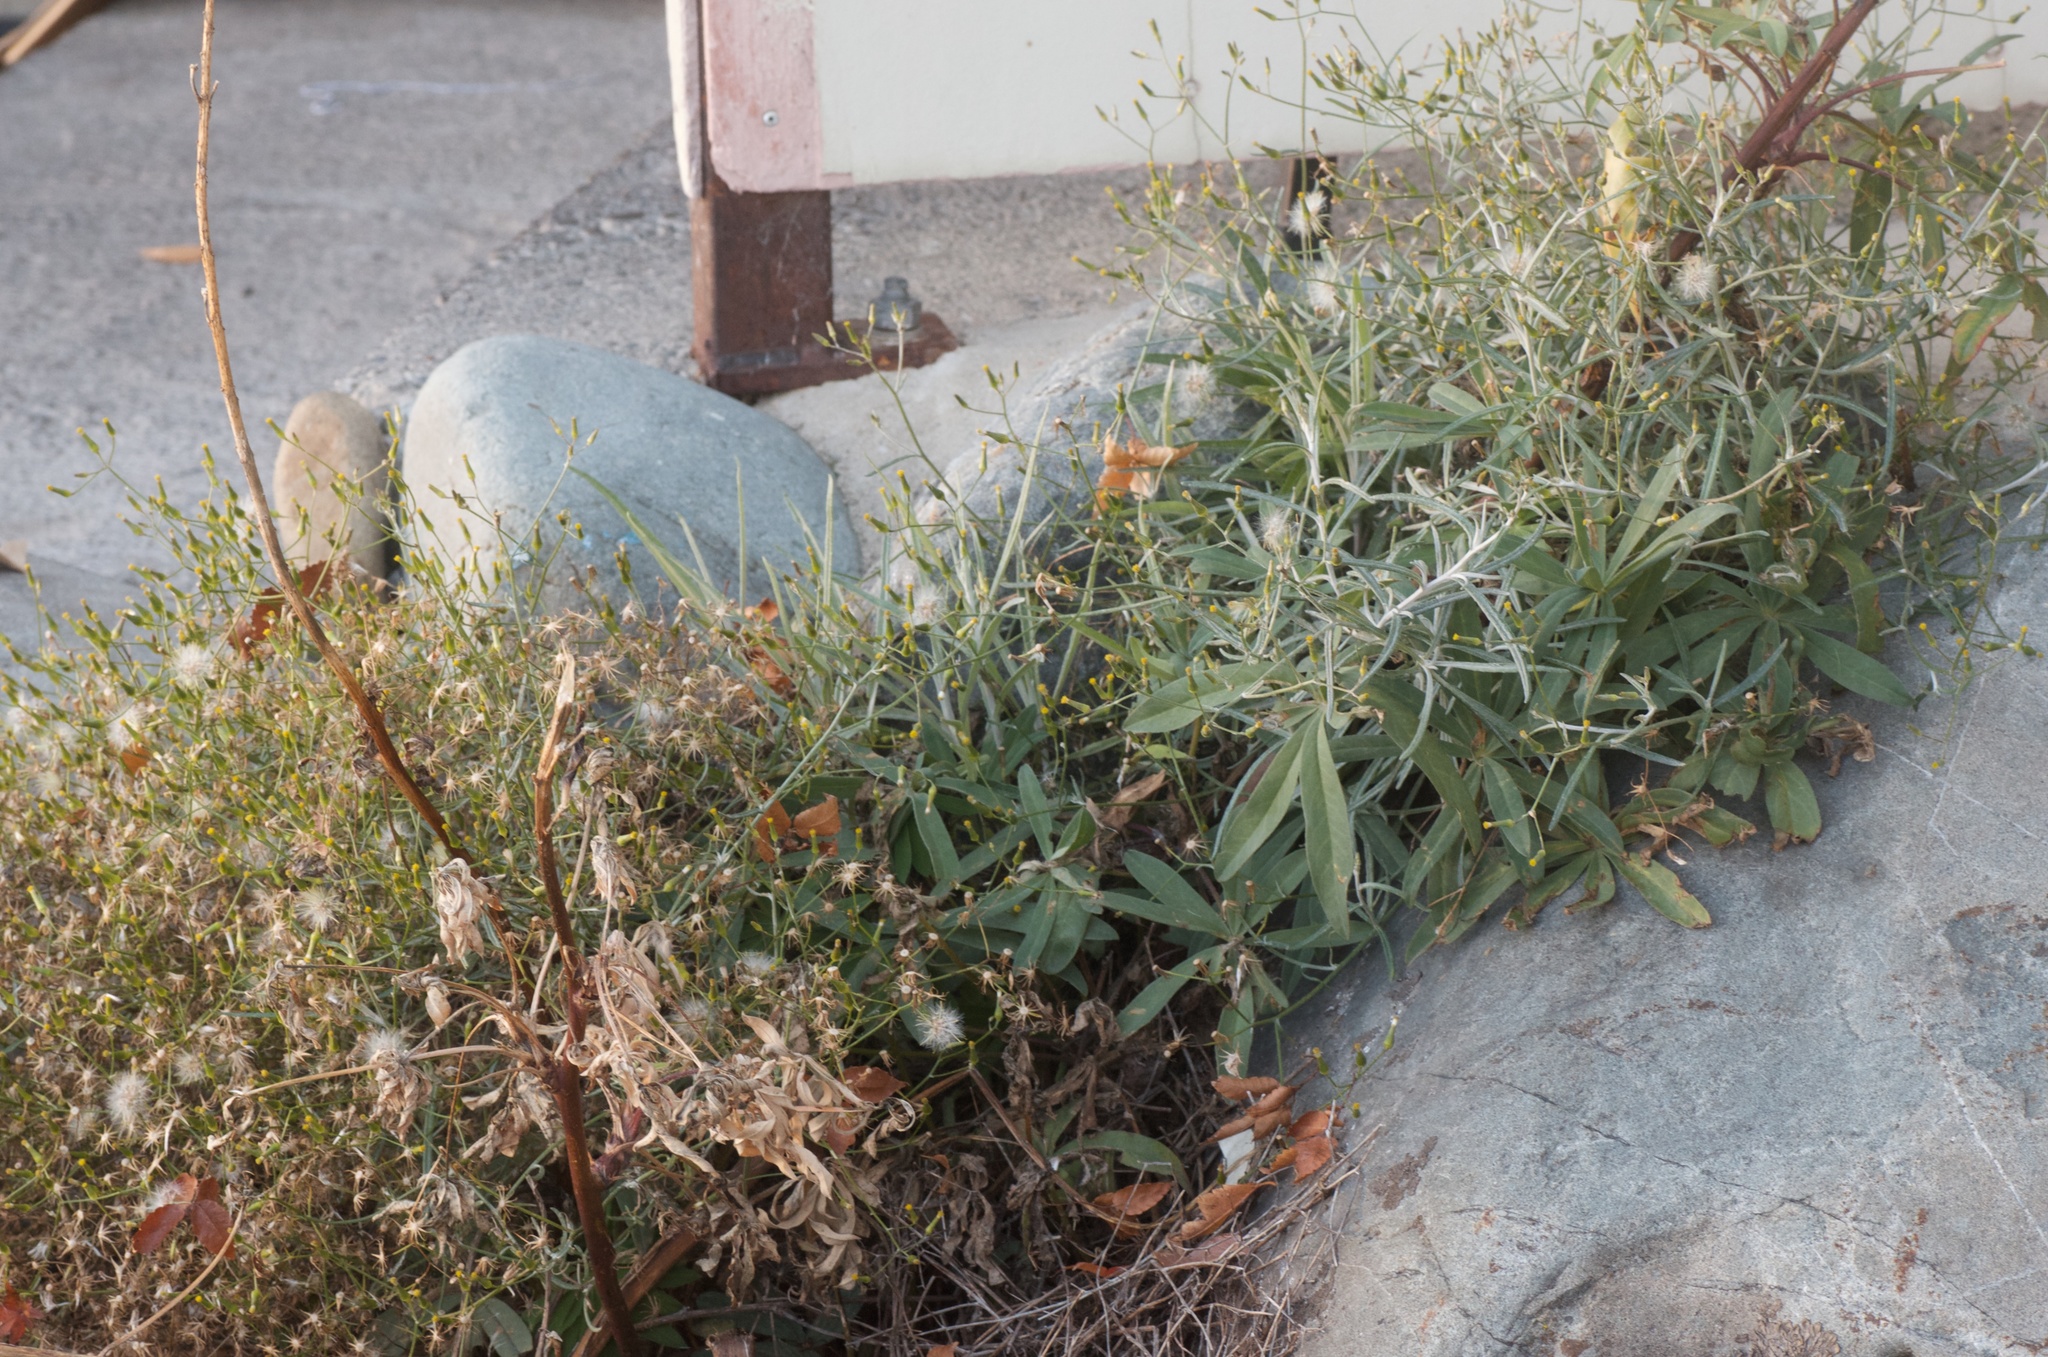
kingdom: Plantae
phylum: Tracheophyta
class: Magnoliopsida
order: Asterales
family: Asteraceae
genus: Senecio
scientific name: Senecio quadridentatus
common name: Cotton fireweed
